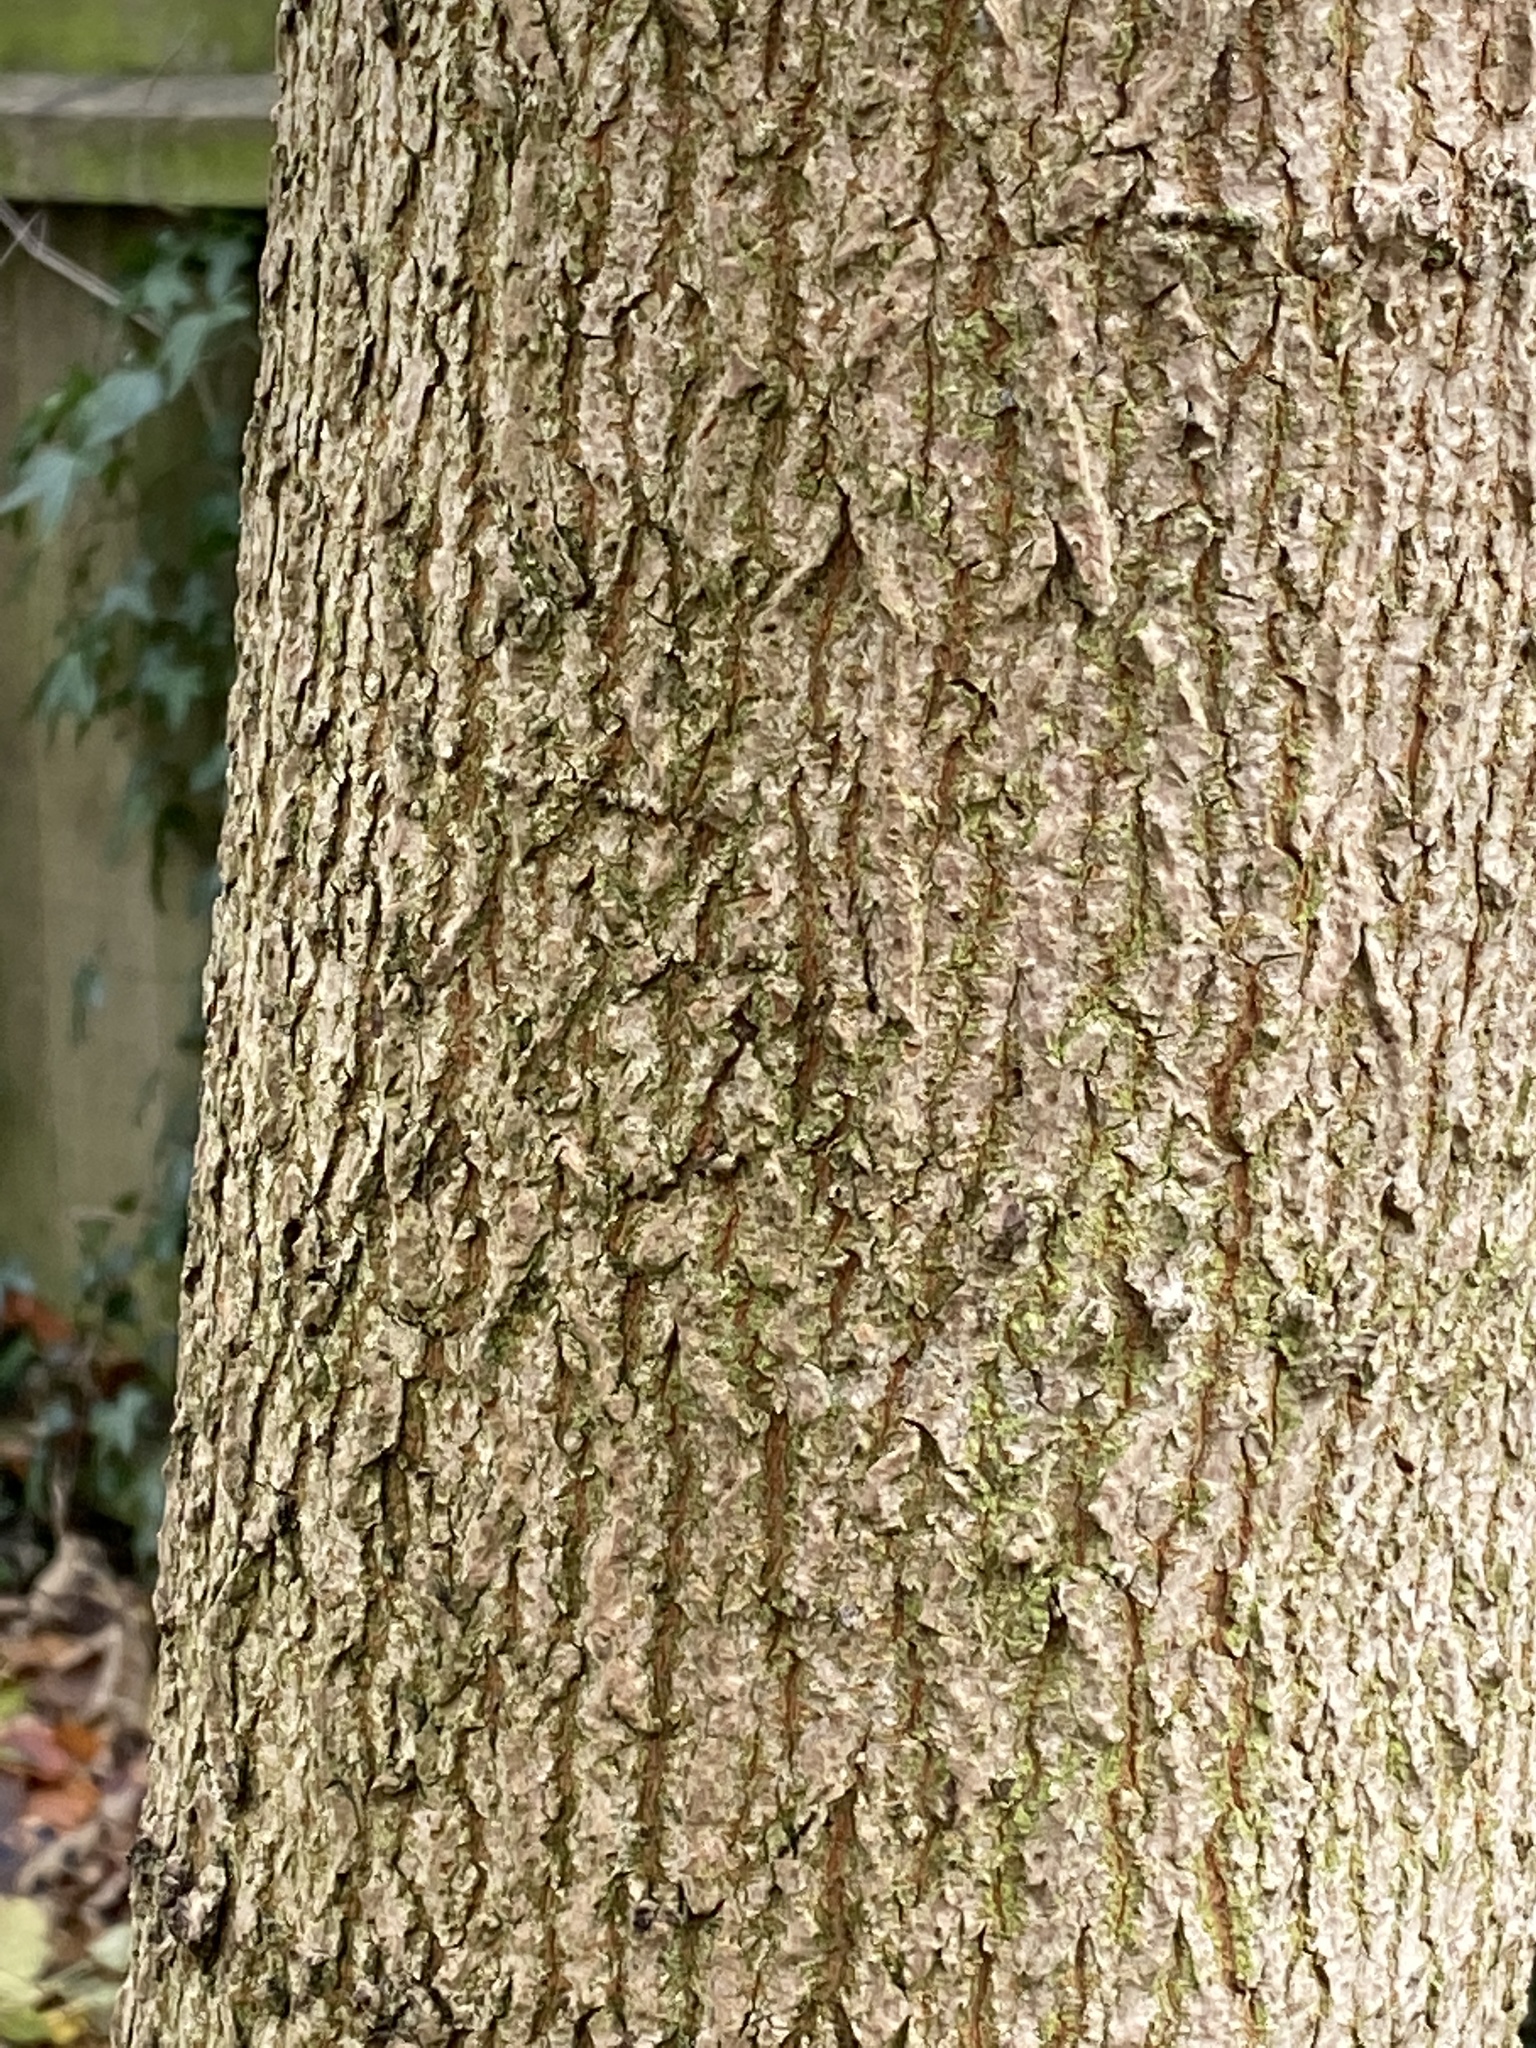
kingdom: Plantae
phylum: Tracheophyta
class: Magnoliopsida
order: Sapindales
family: Sapindaceae
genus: Acer
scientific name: Acer campestre
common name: Field maple
